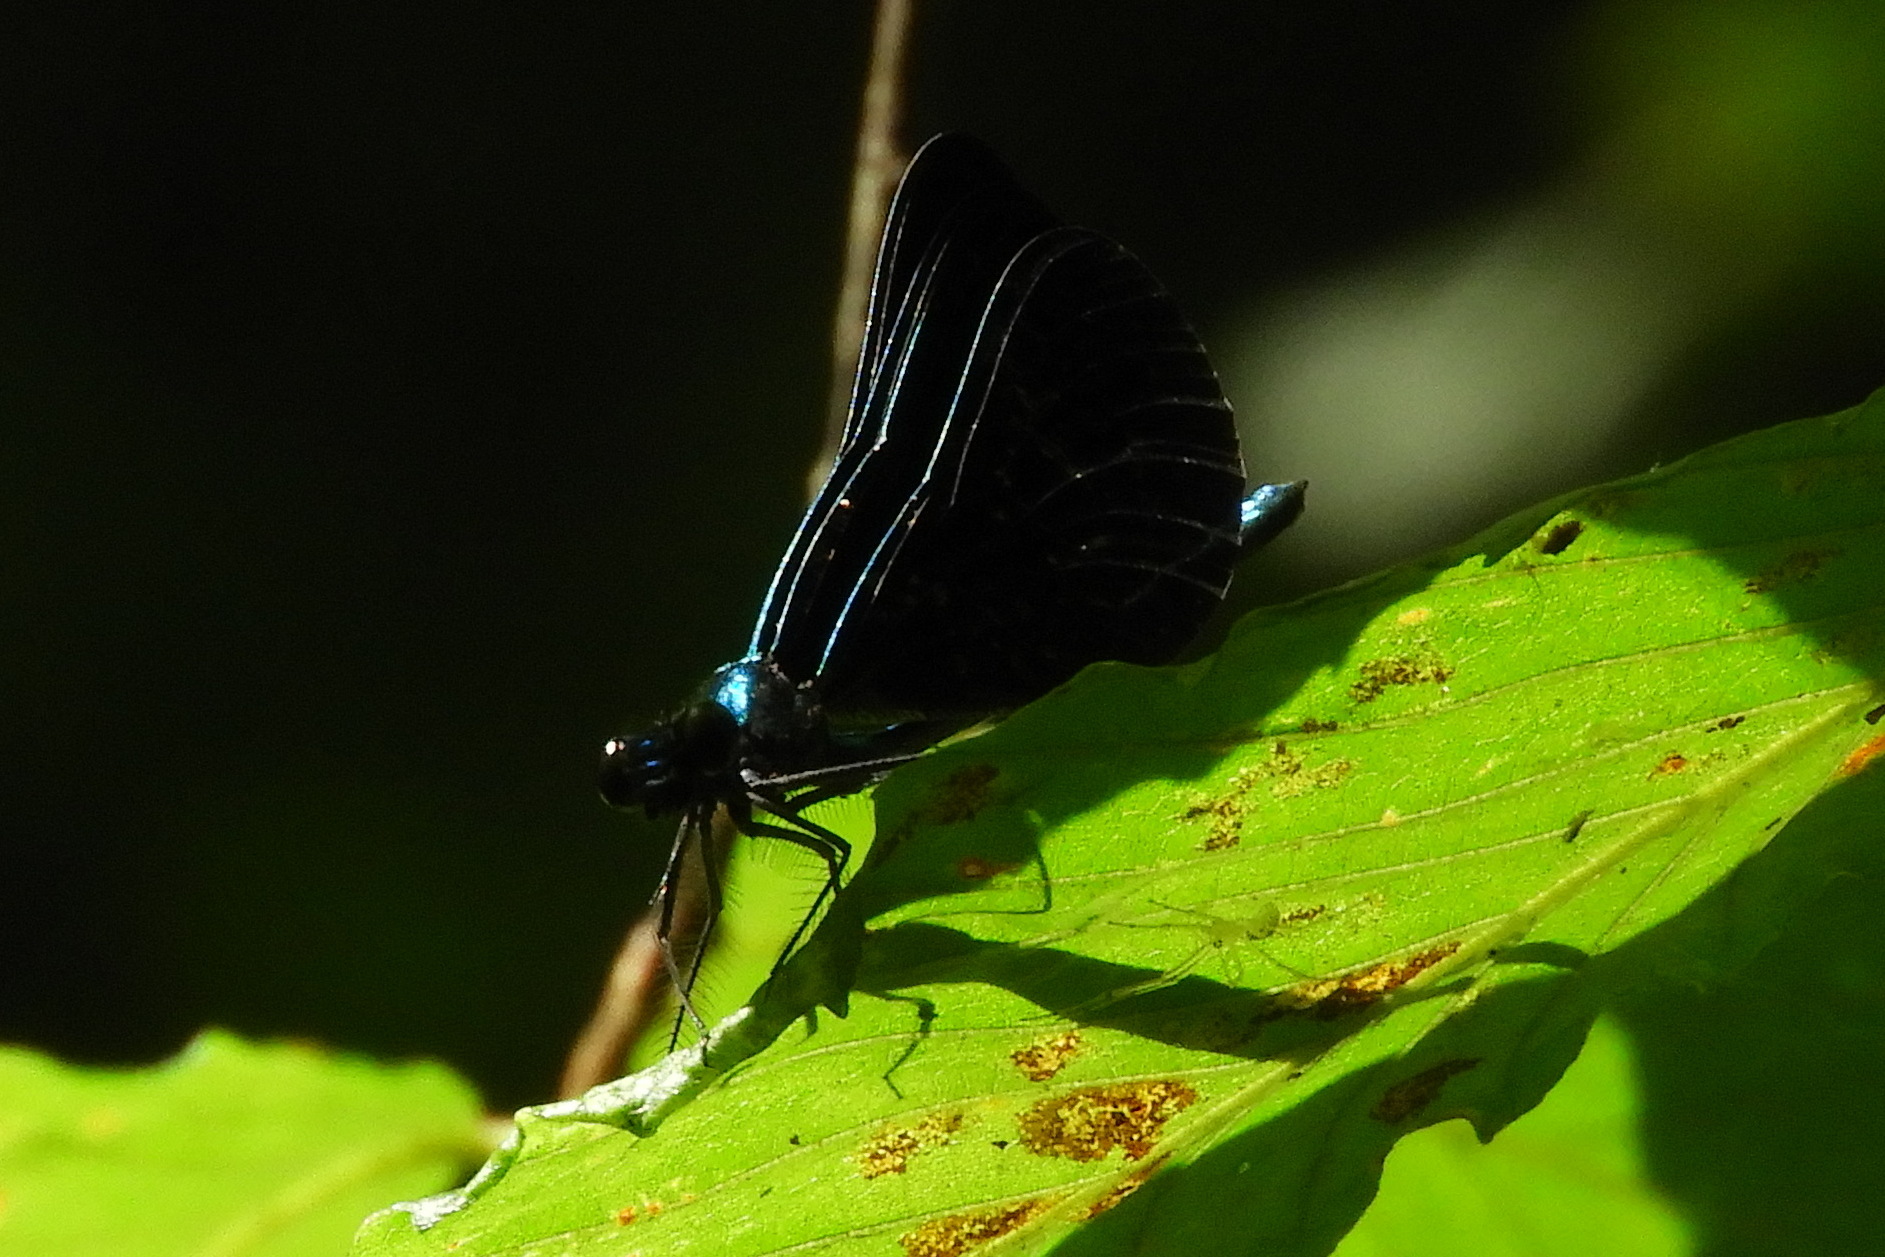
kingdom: Animalia
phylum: Arthropoda
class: Insecta
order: Odonata
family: Calopterygidae
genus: Calopteryx
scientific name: Calopteryx maculata
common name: Ebony jewelwing
